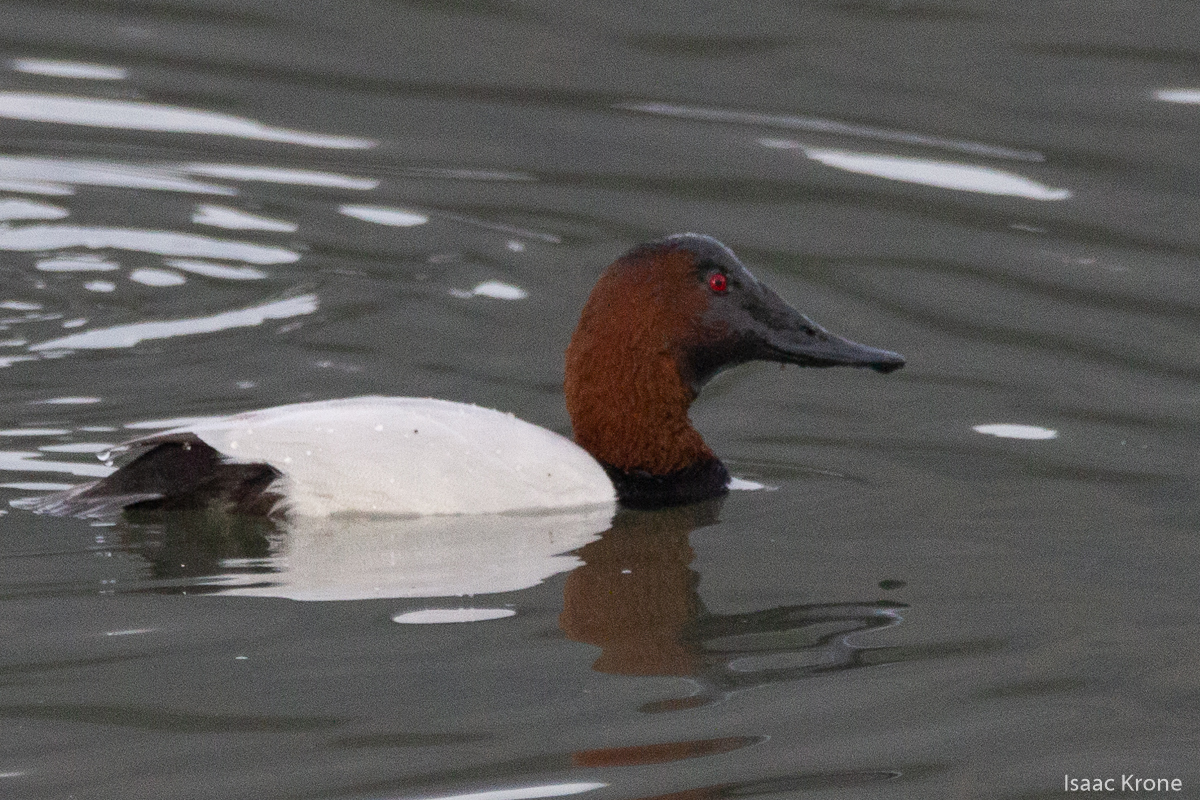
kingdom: Animalia
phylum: Chordata
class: Aves
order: Anseriformes
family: Anatidae
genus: Aythya
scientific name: Aythya valisineria
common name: Canvasback
